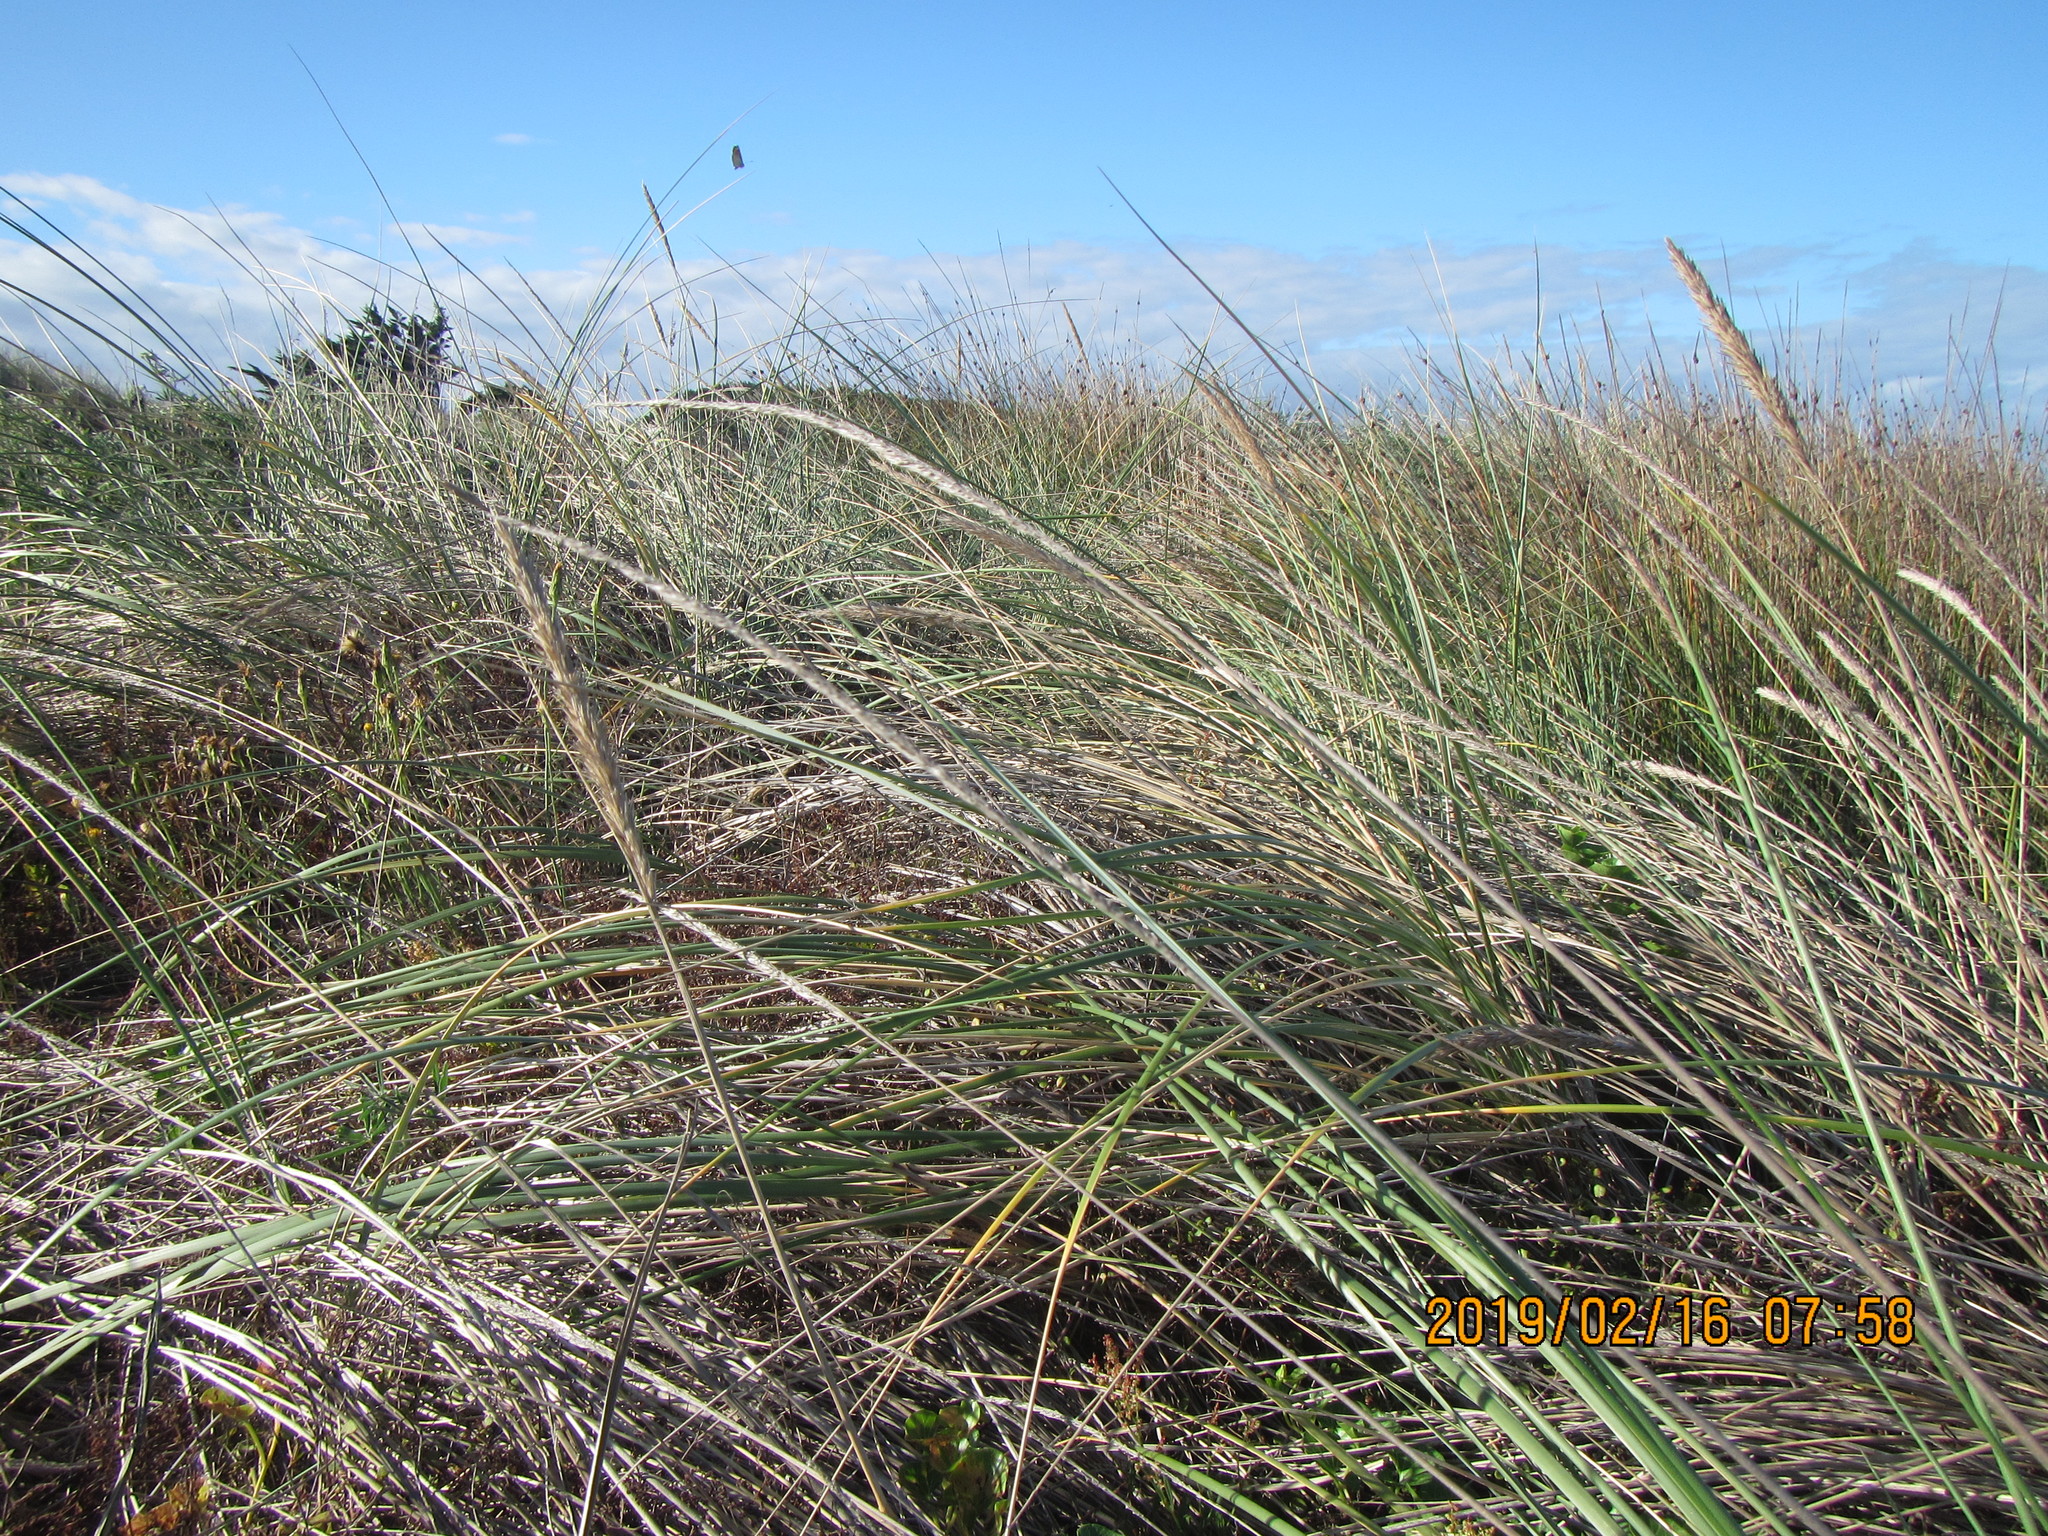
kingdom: Plantae
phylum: Tracheophyta
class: Liliopsida
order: Poales
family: Poaceae
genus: Calamagrostis
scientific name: Calamagrostis arenaria
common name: European beachgrass
